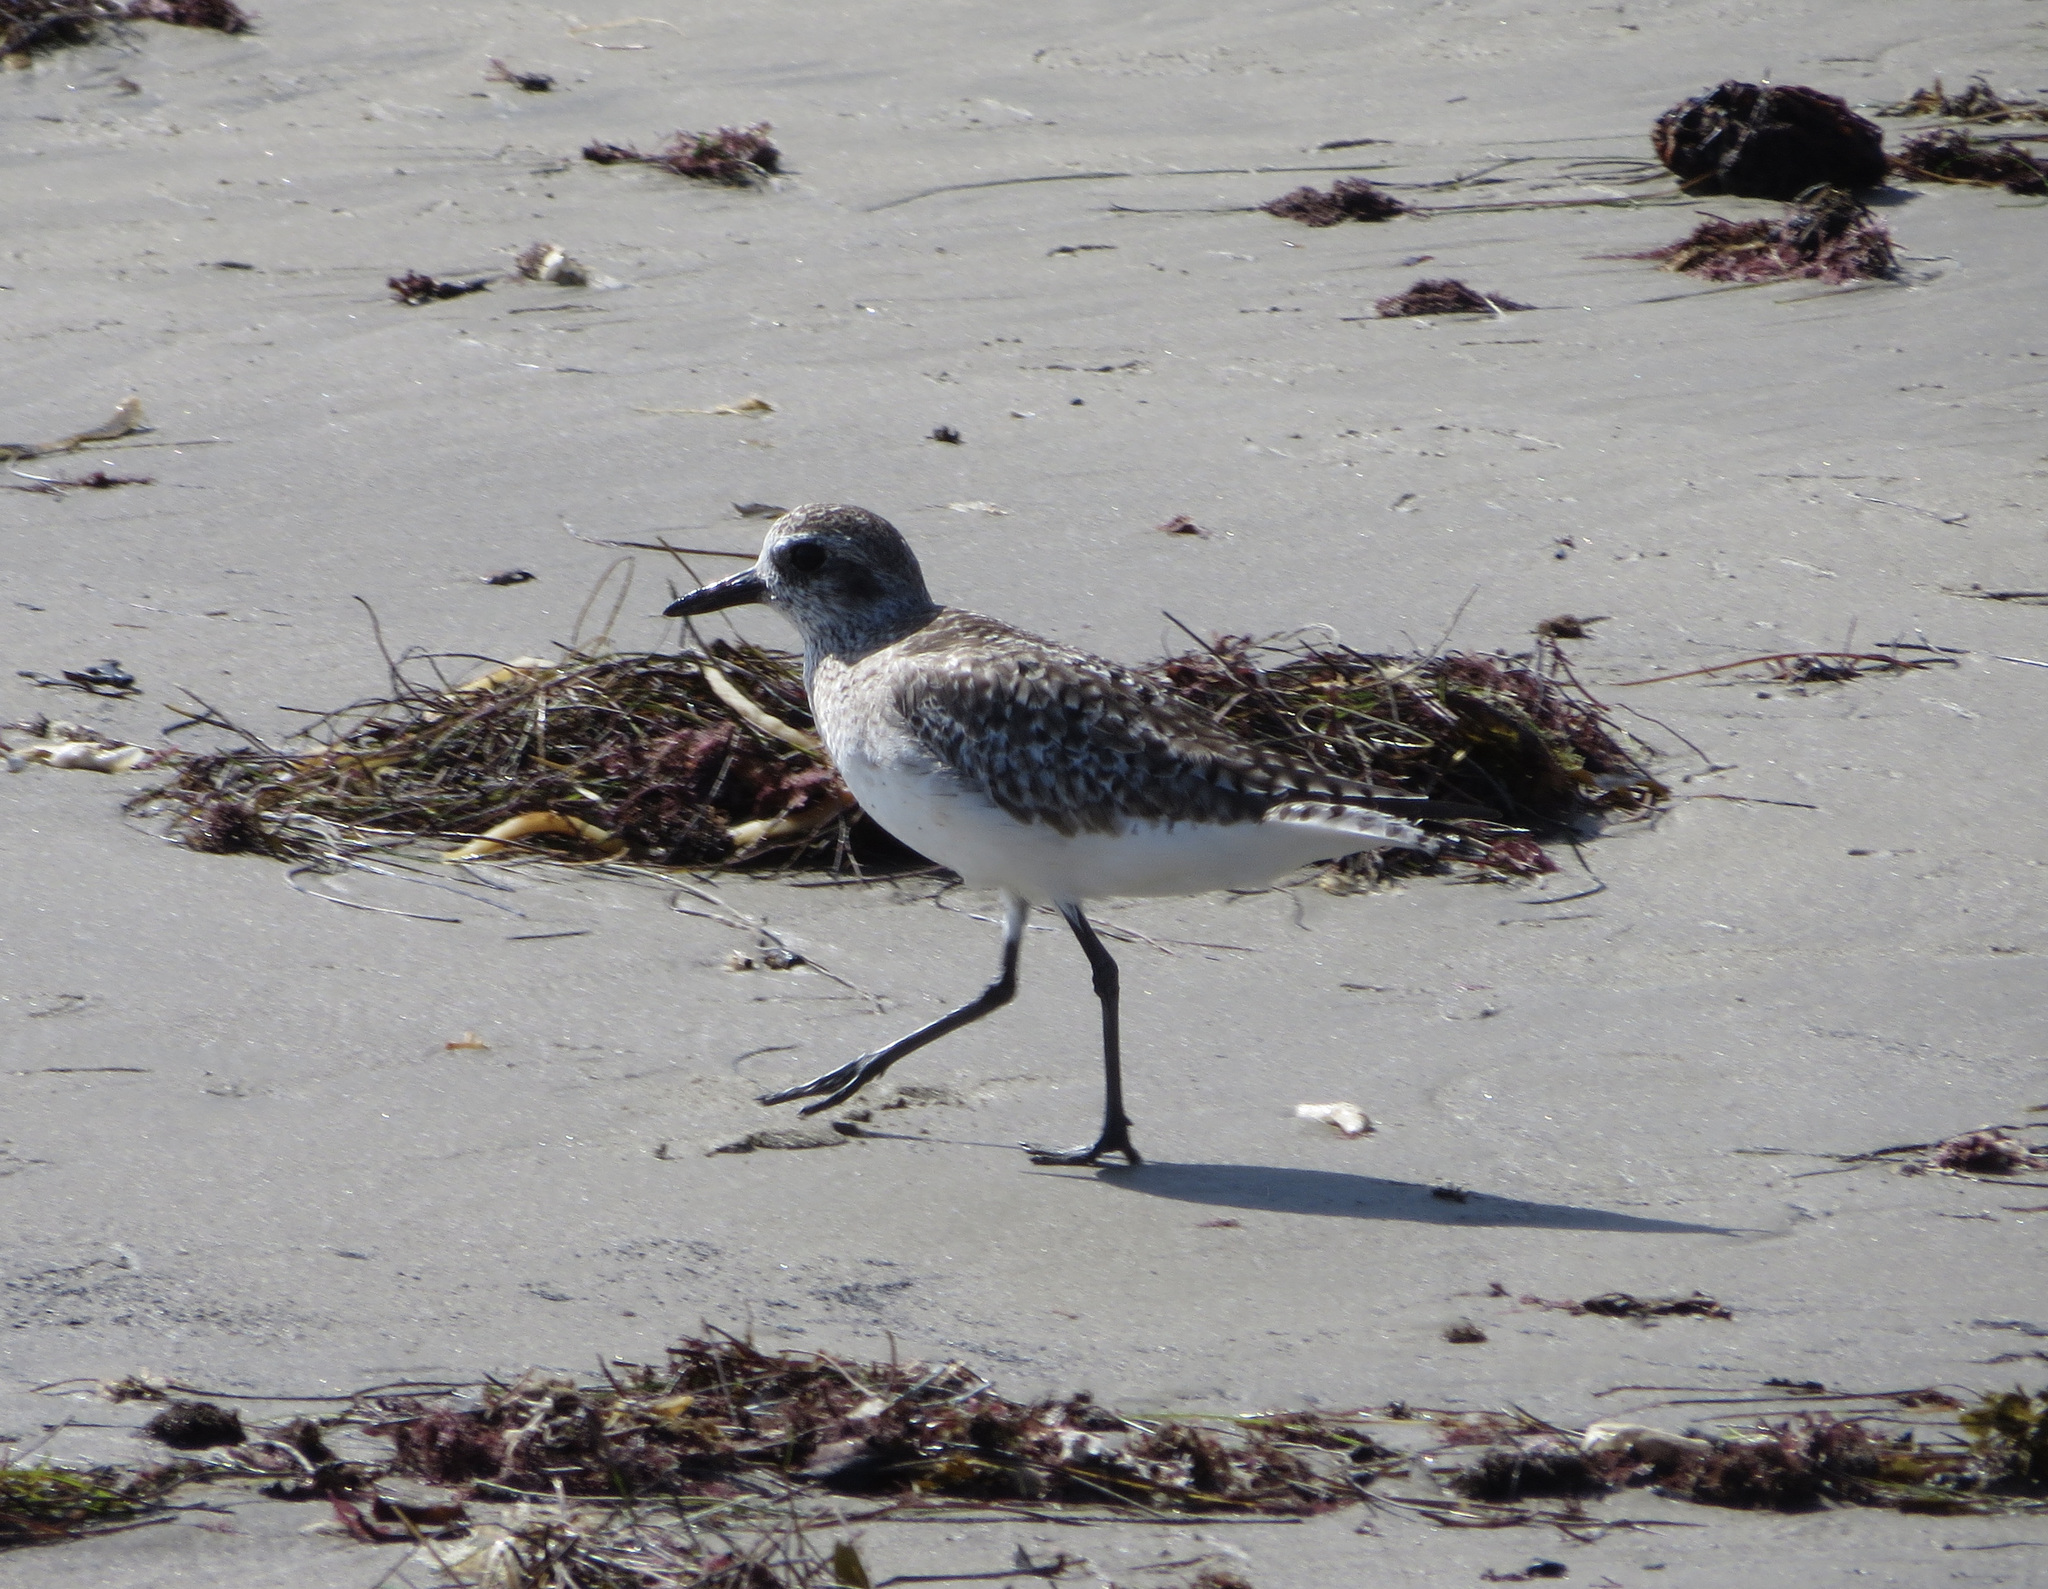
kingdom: Animalia
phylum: Chordata
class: Aves
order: Charadriiformes
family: Charadriidae
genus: Pluvialis
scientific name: Pluvialis squatarola
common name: Grey plover
